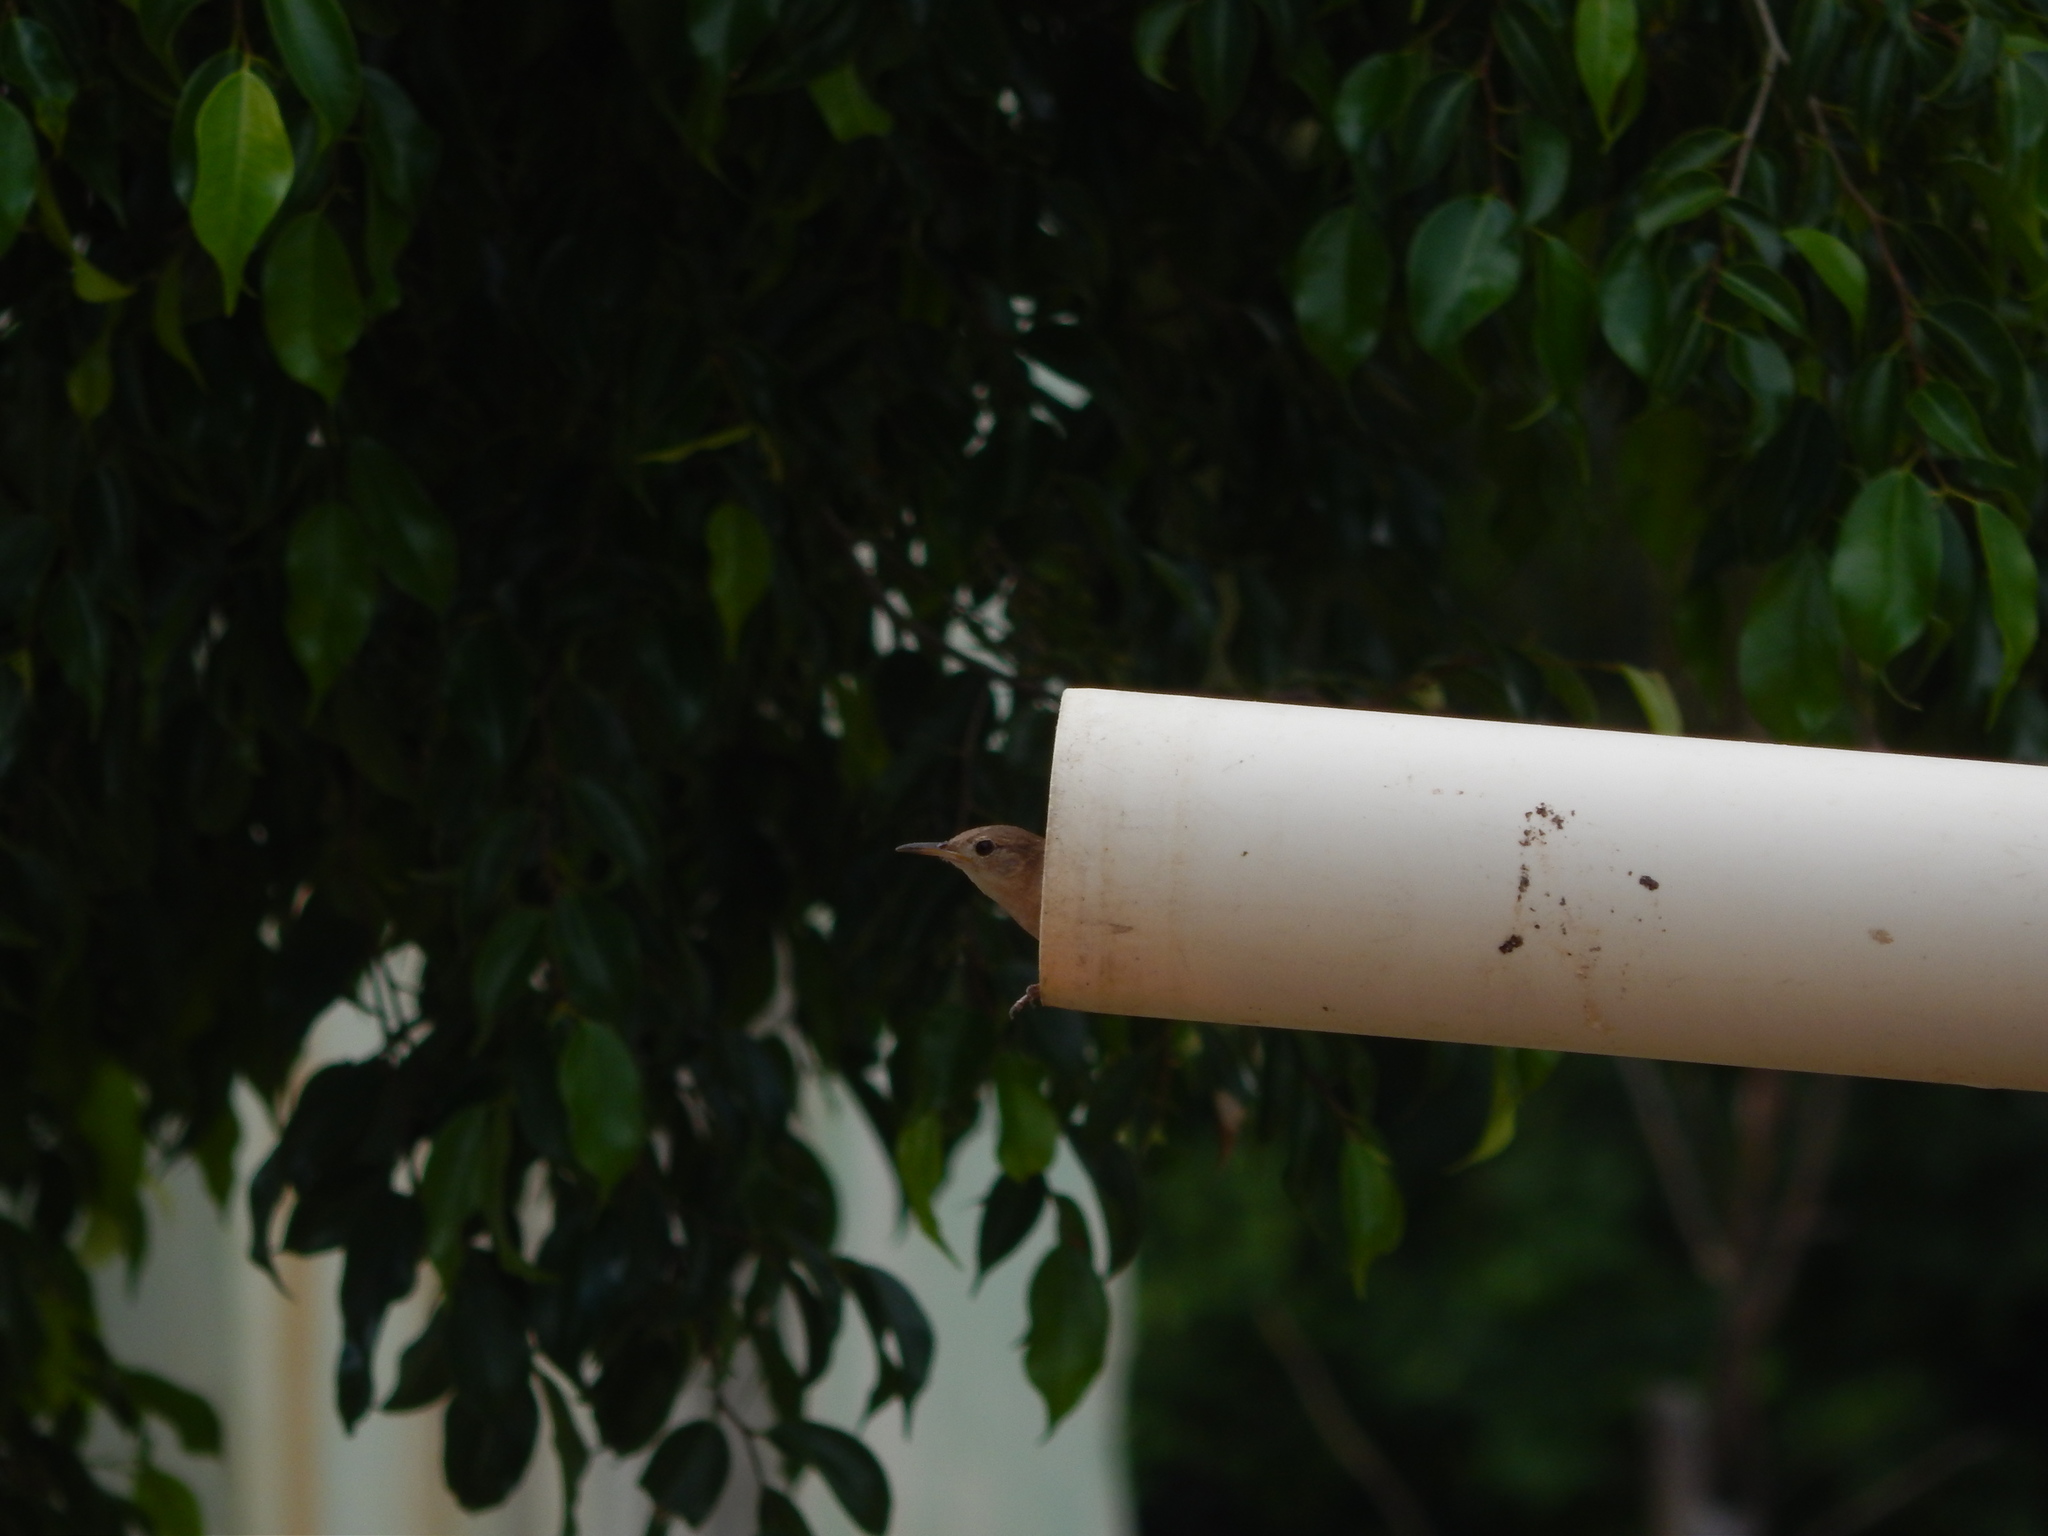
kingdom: Animalia
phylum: Chordata
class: Aves
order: Passeriformes
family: Furnariidae
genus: Furnarius
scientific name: Furnarius rufus
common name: Rufous hornero
